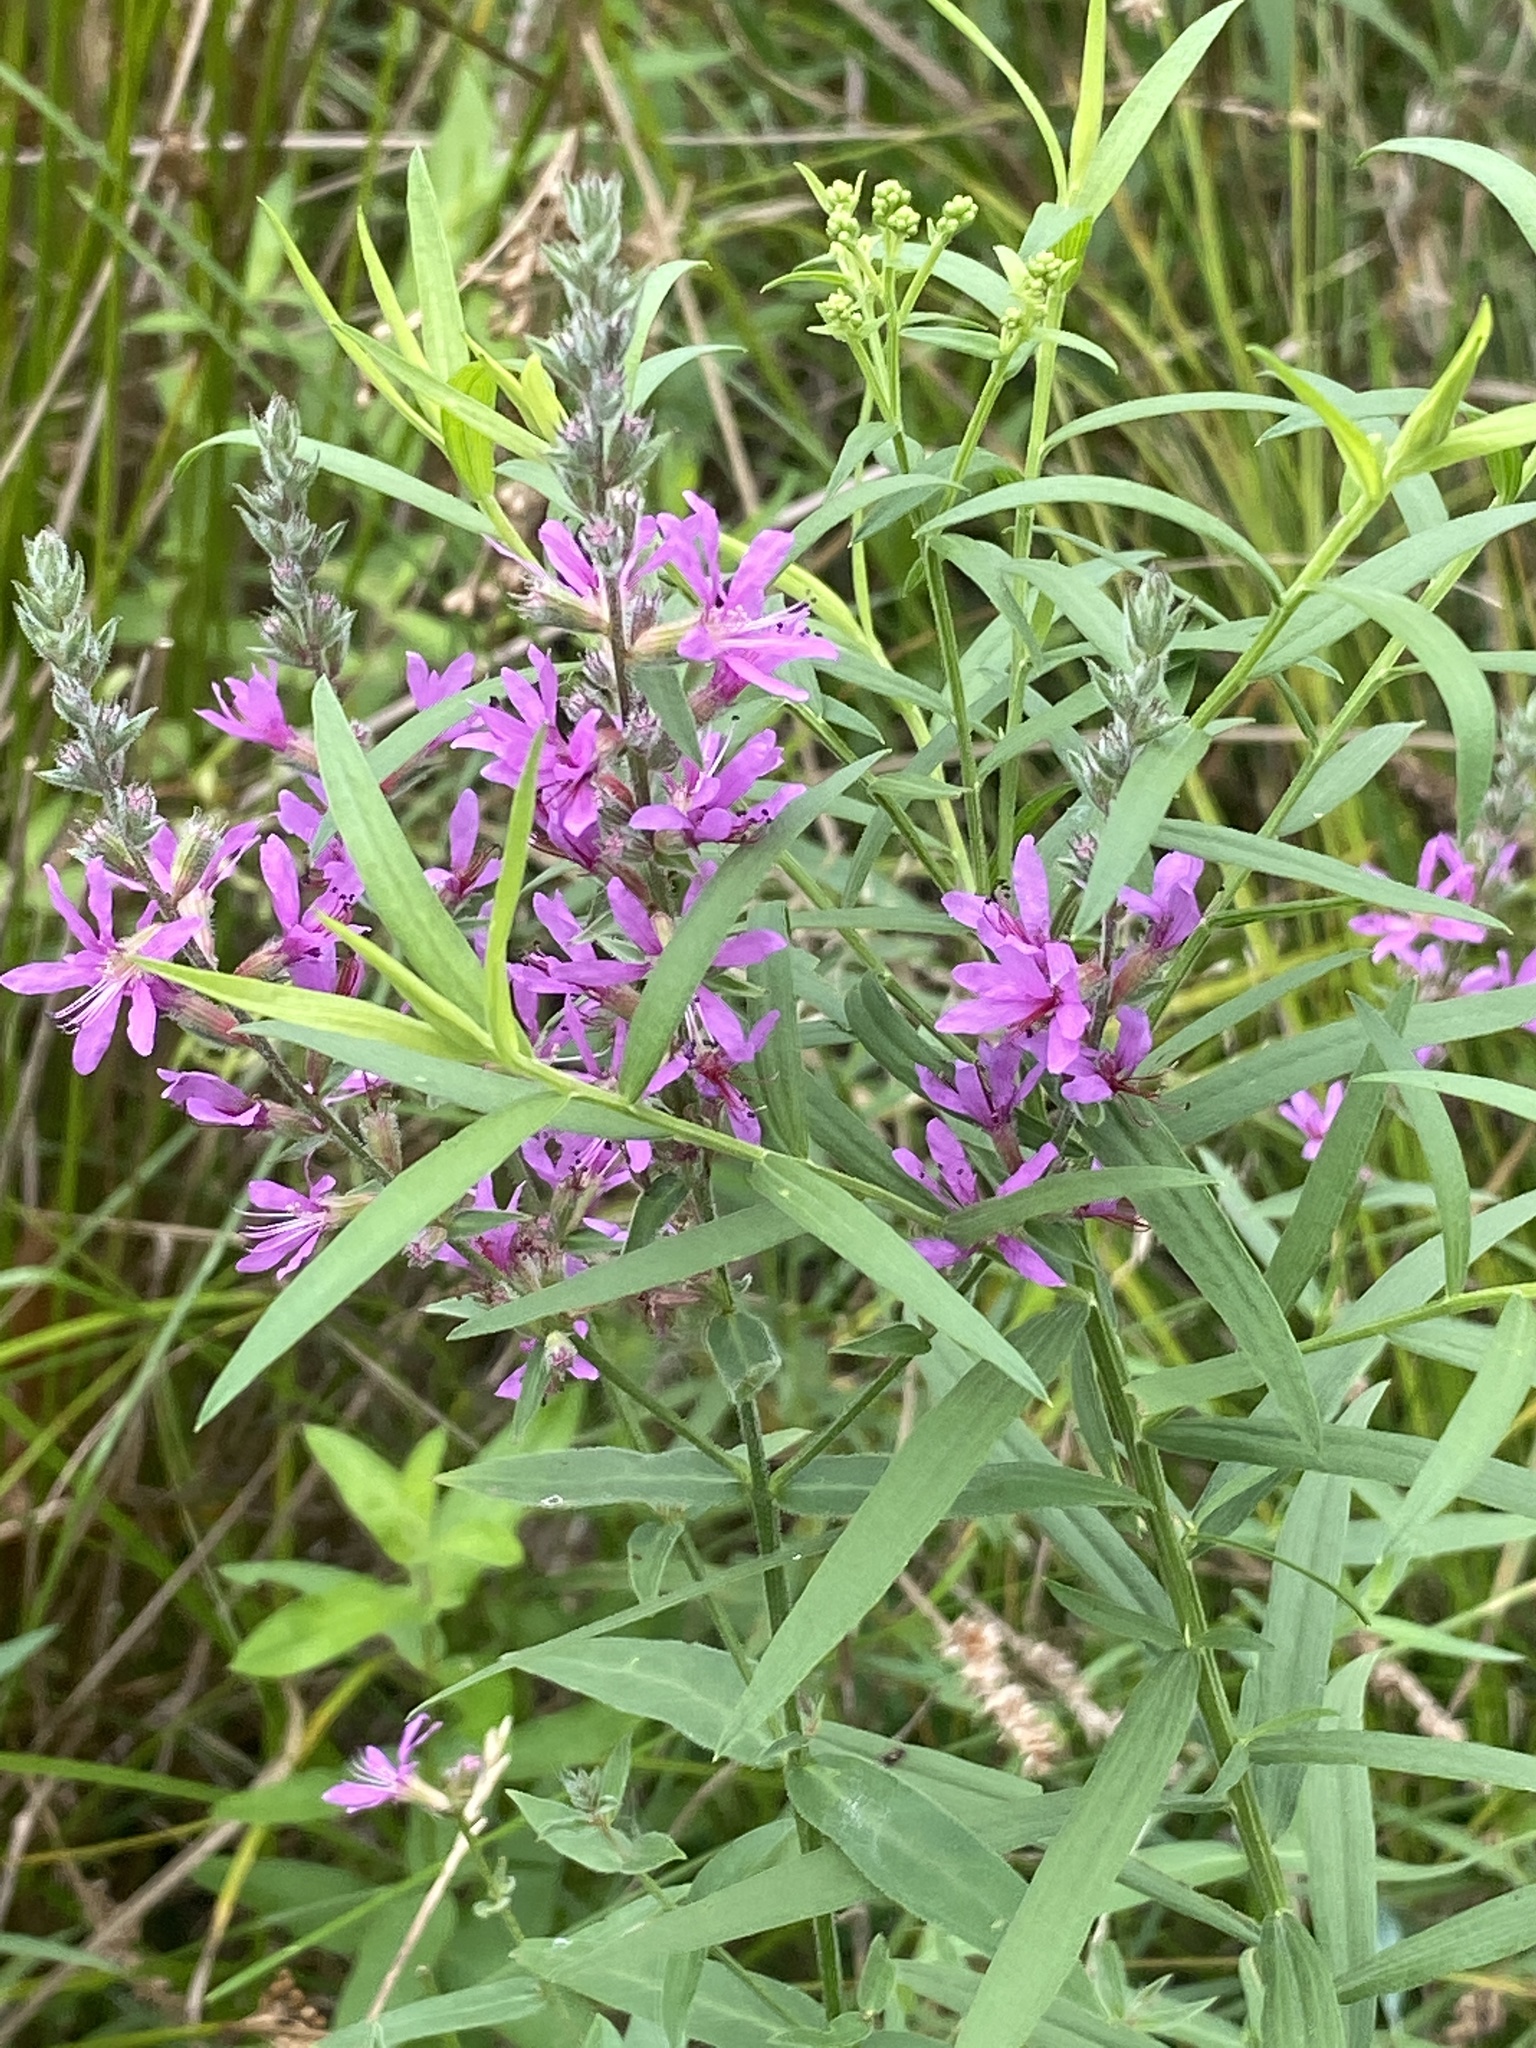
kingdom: Plantae
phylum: Tracheophyta
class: Magnoliopsida
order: Myrtales
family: Lythraceae
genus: Lythrum
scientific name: Lythrum salicaria
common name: Purple loosestrife
